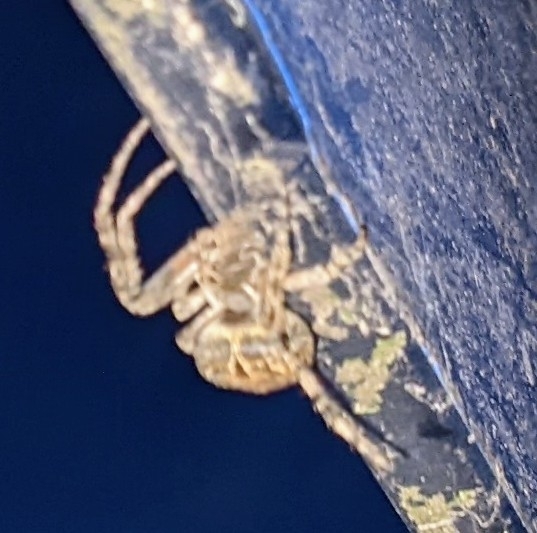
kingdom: Animalia
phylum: Arthropoda
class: Arachnida
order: Araneae
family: Araneidae
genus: Larinioides
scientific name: Larinioides sclopetarius
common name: Bridge orbweaver
